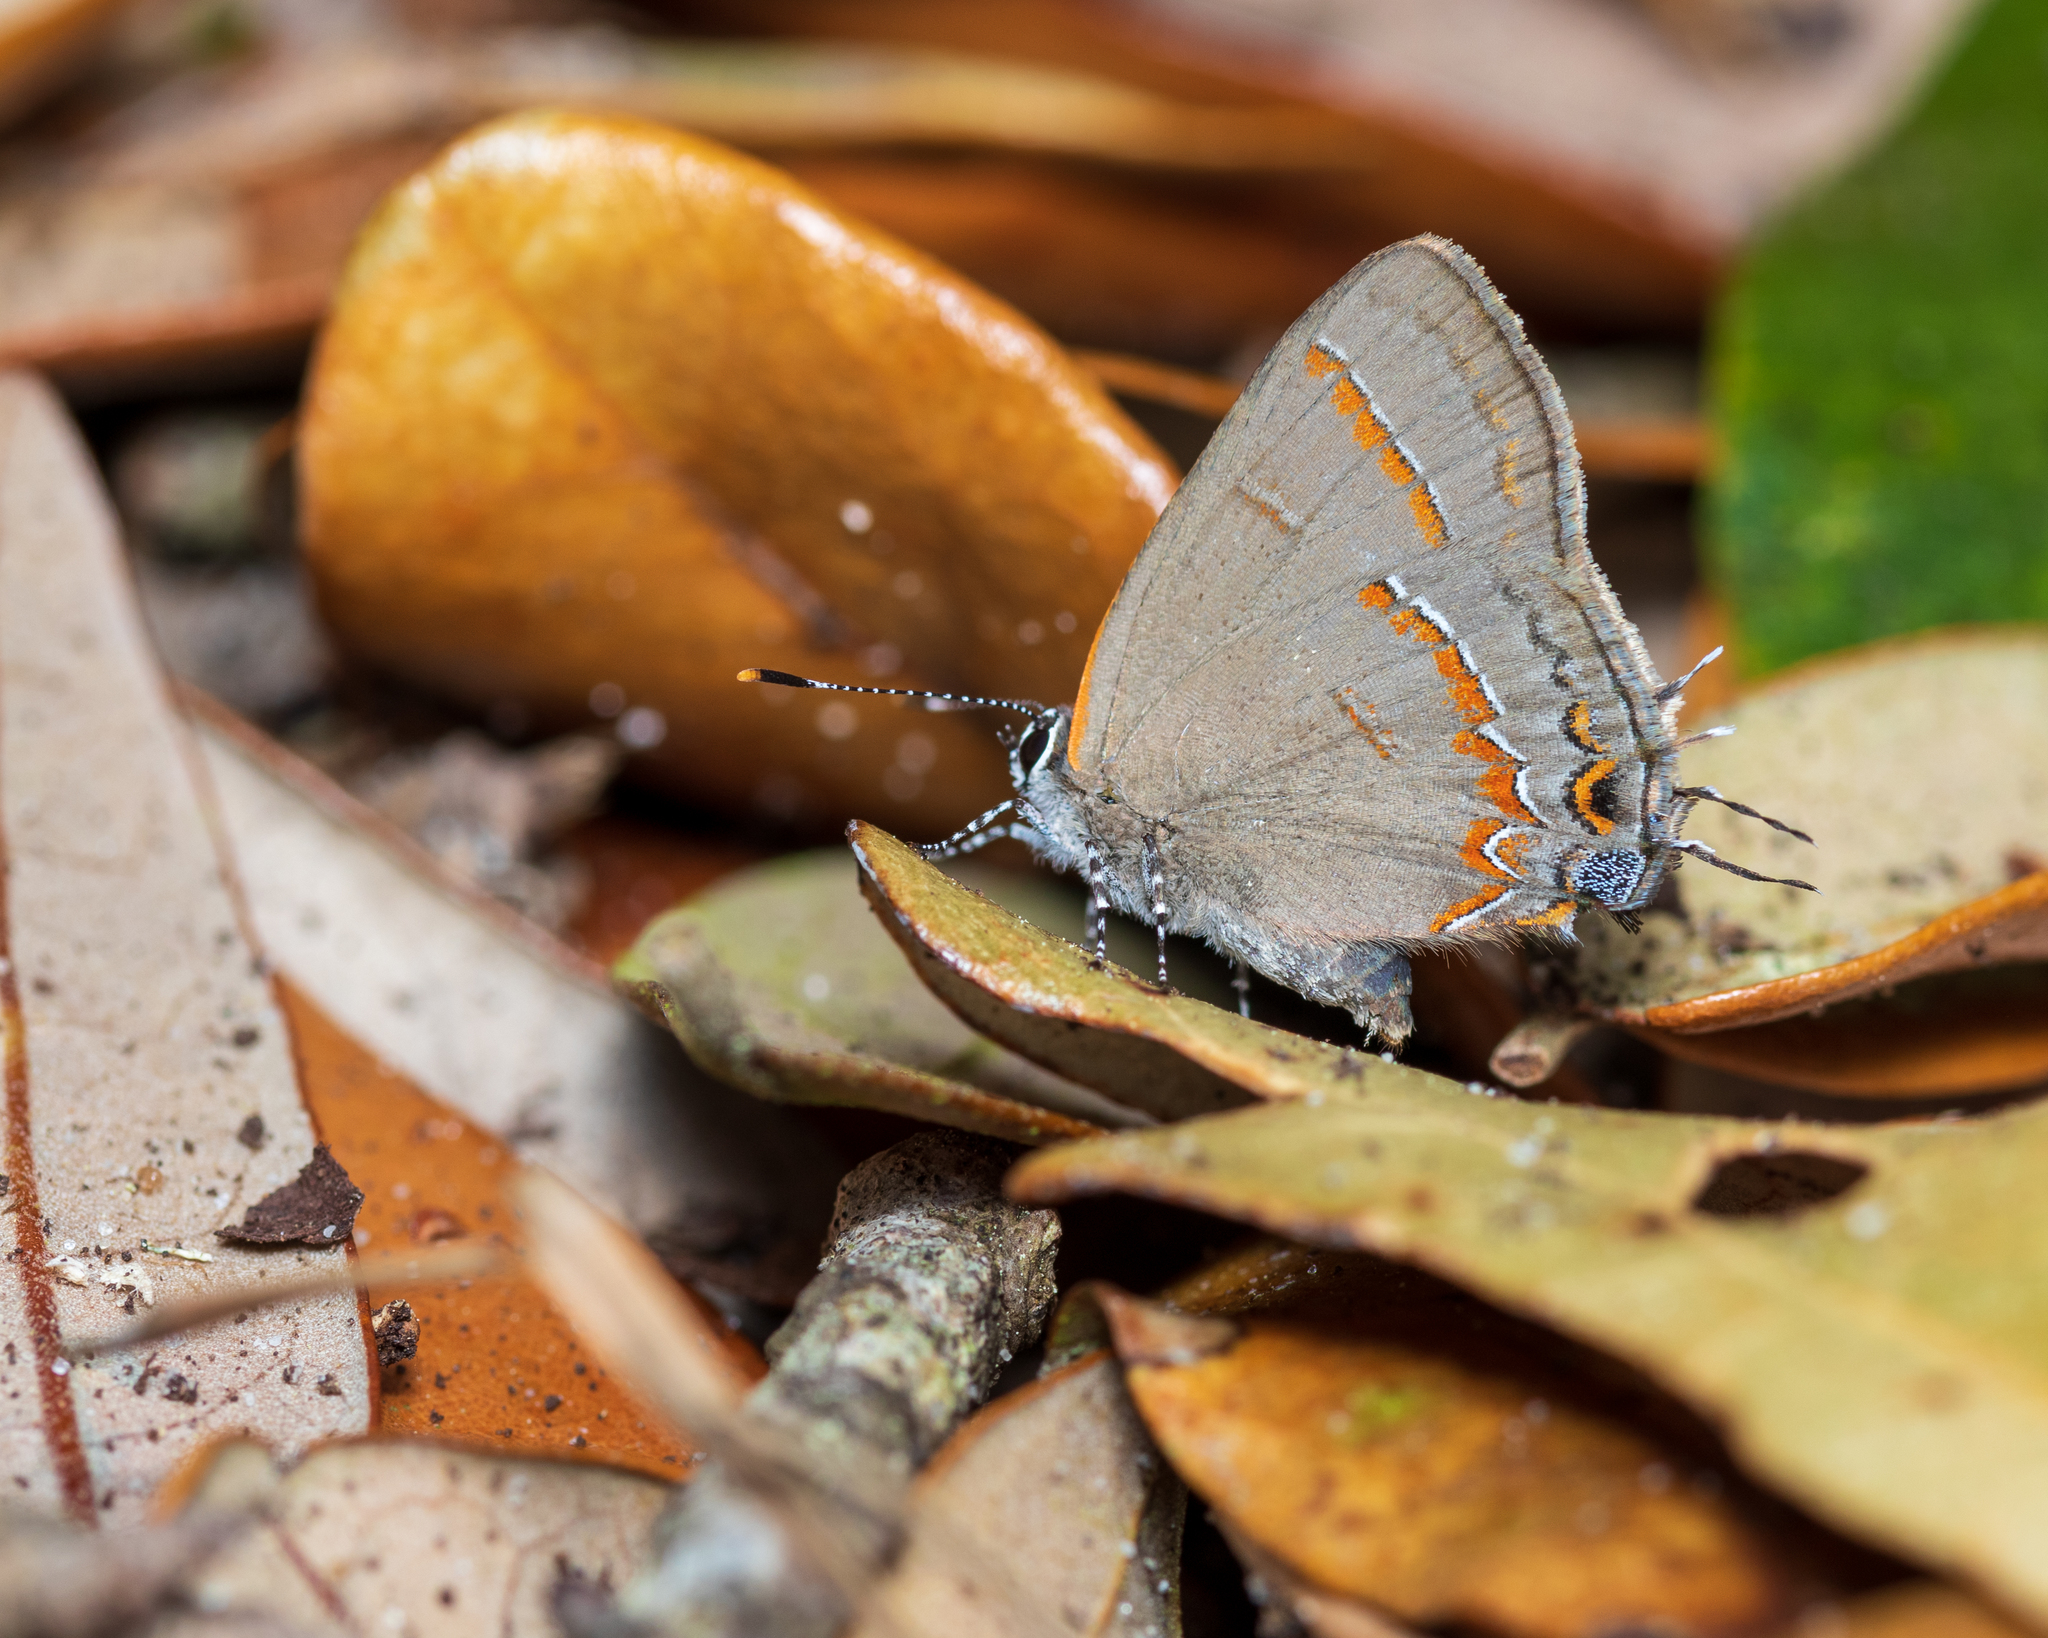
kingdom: Animalia
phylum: Arthropoda
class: Insecta
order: Lepidoptera
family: Lycaenidae
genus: Calycopis
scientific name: Calycopis cecrops
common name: Red-banded hairstreak
